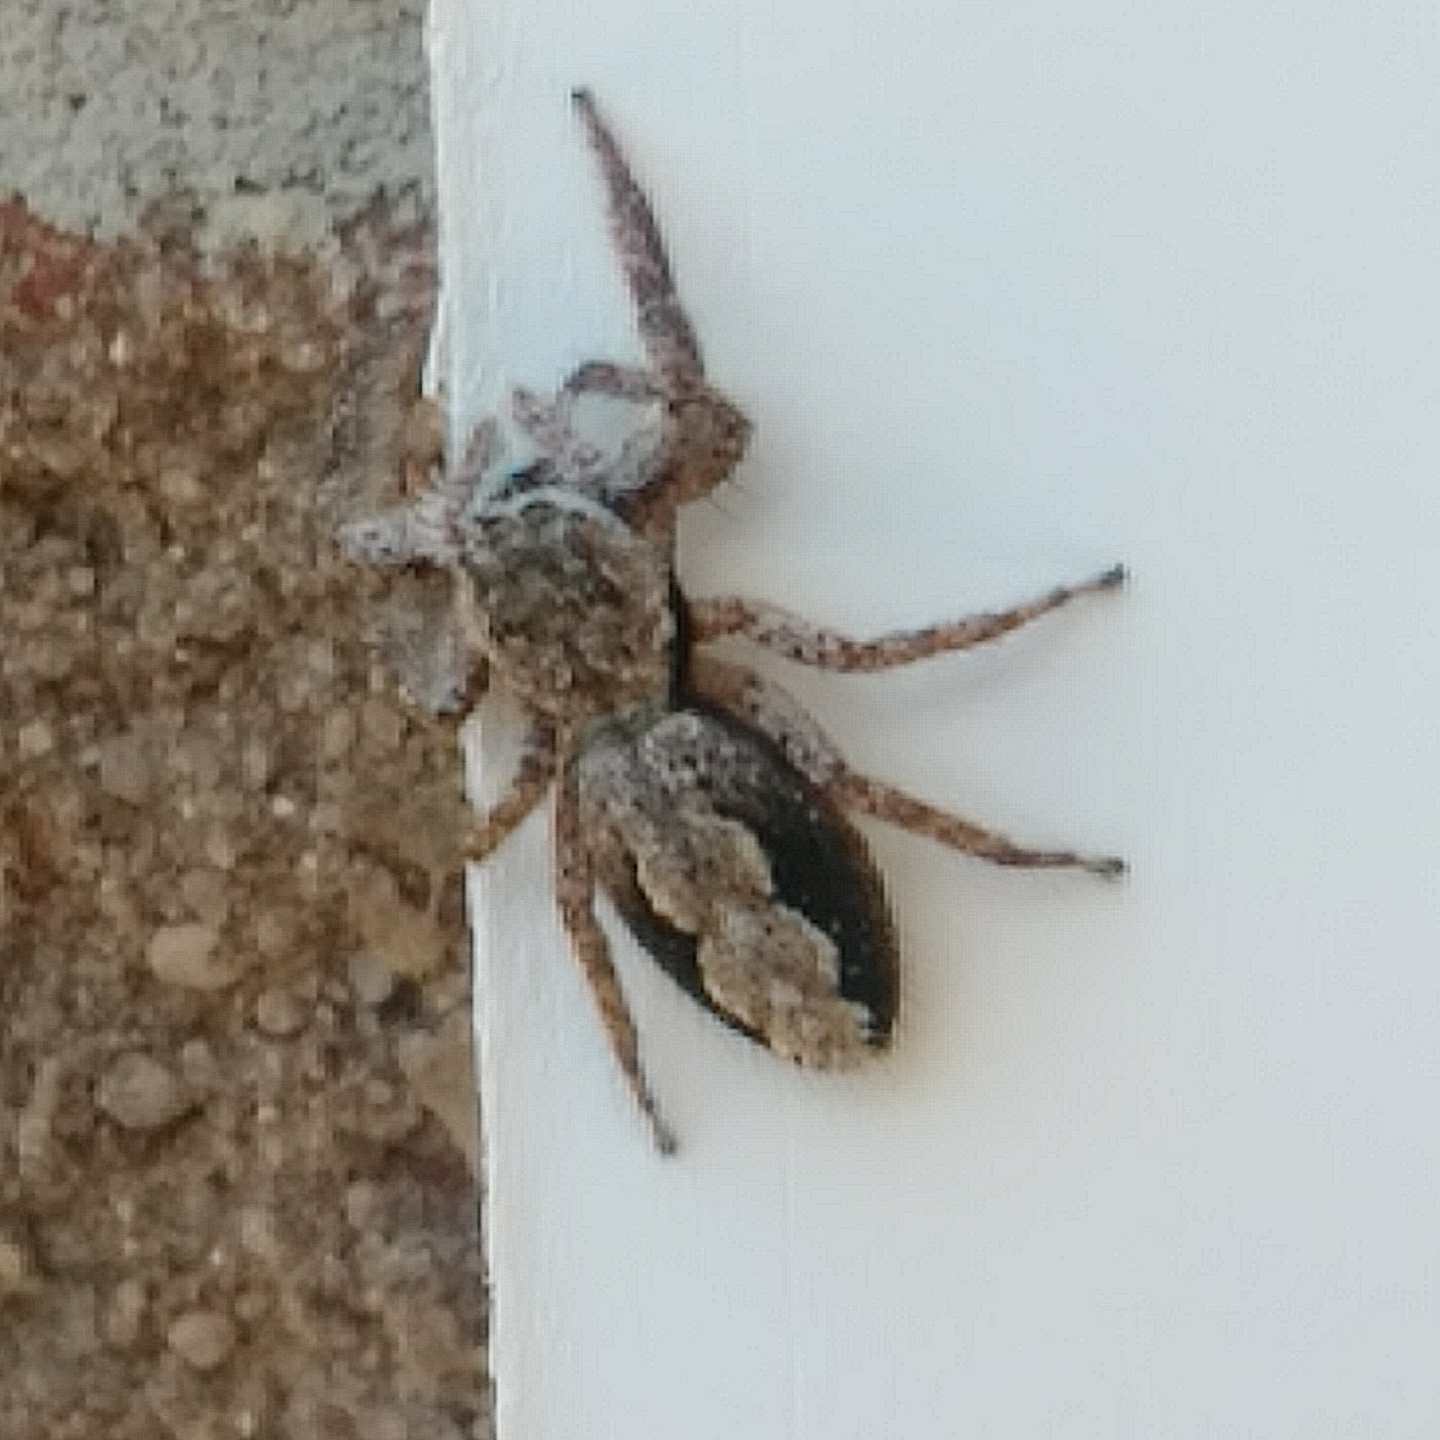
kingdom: Animalia
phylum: Arthropoda
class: Arachnida
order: Araneae
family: Salticidae
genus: Platycryptus
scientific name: Platycryptus undatus
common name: Tan jumping spider
